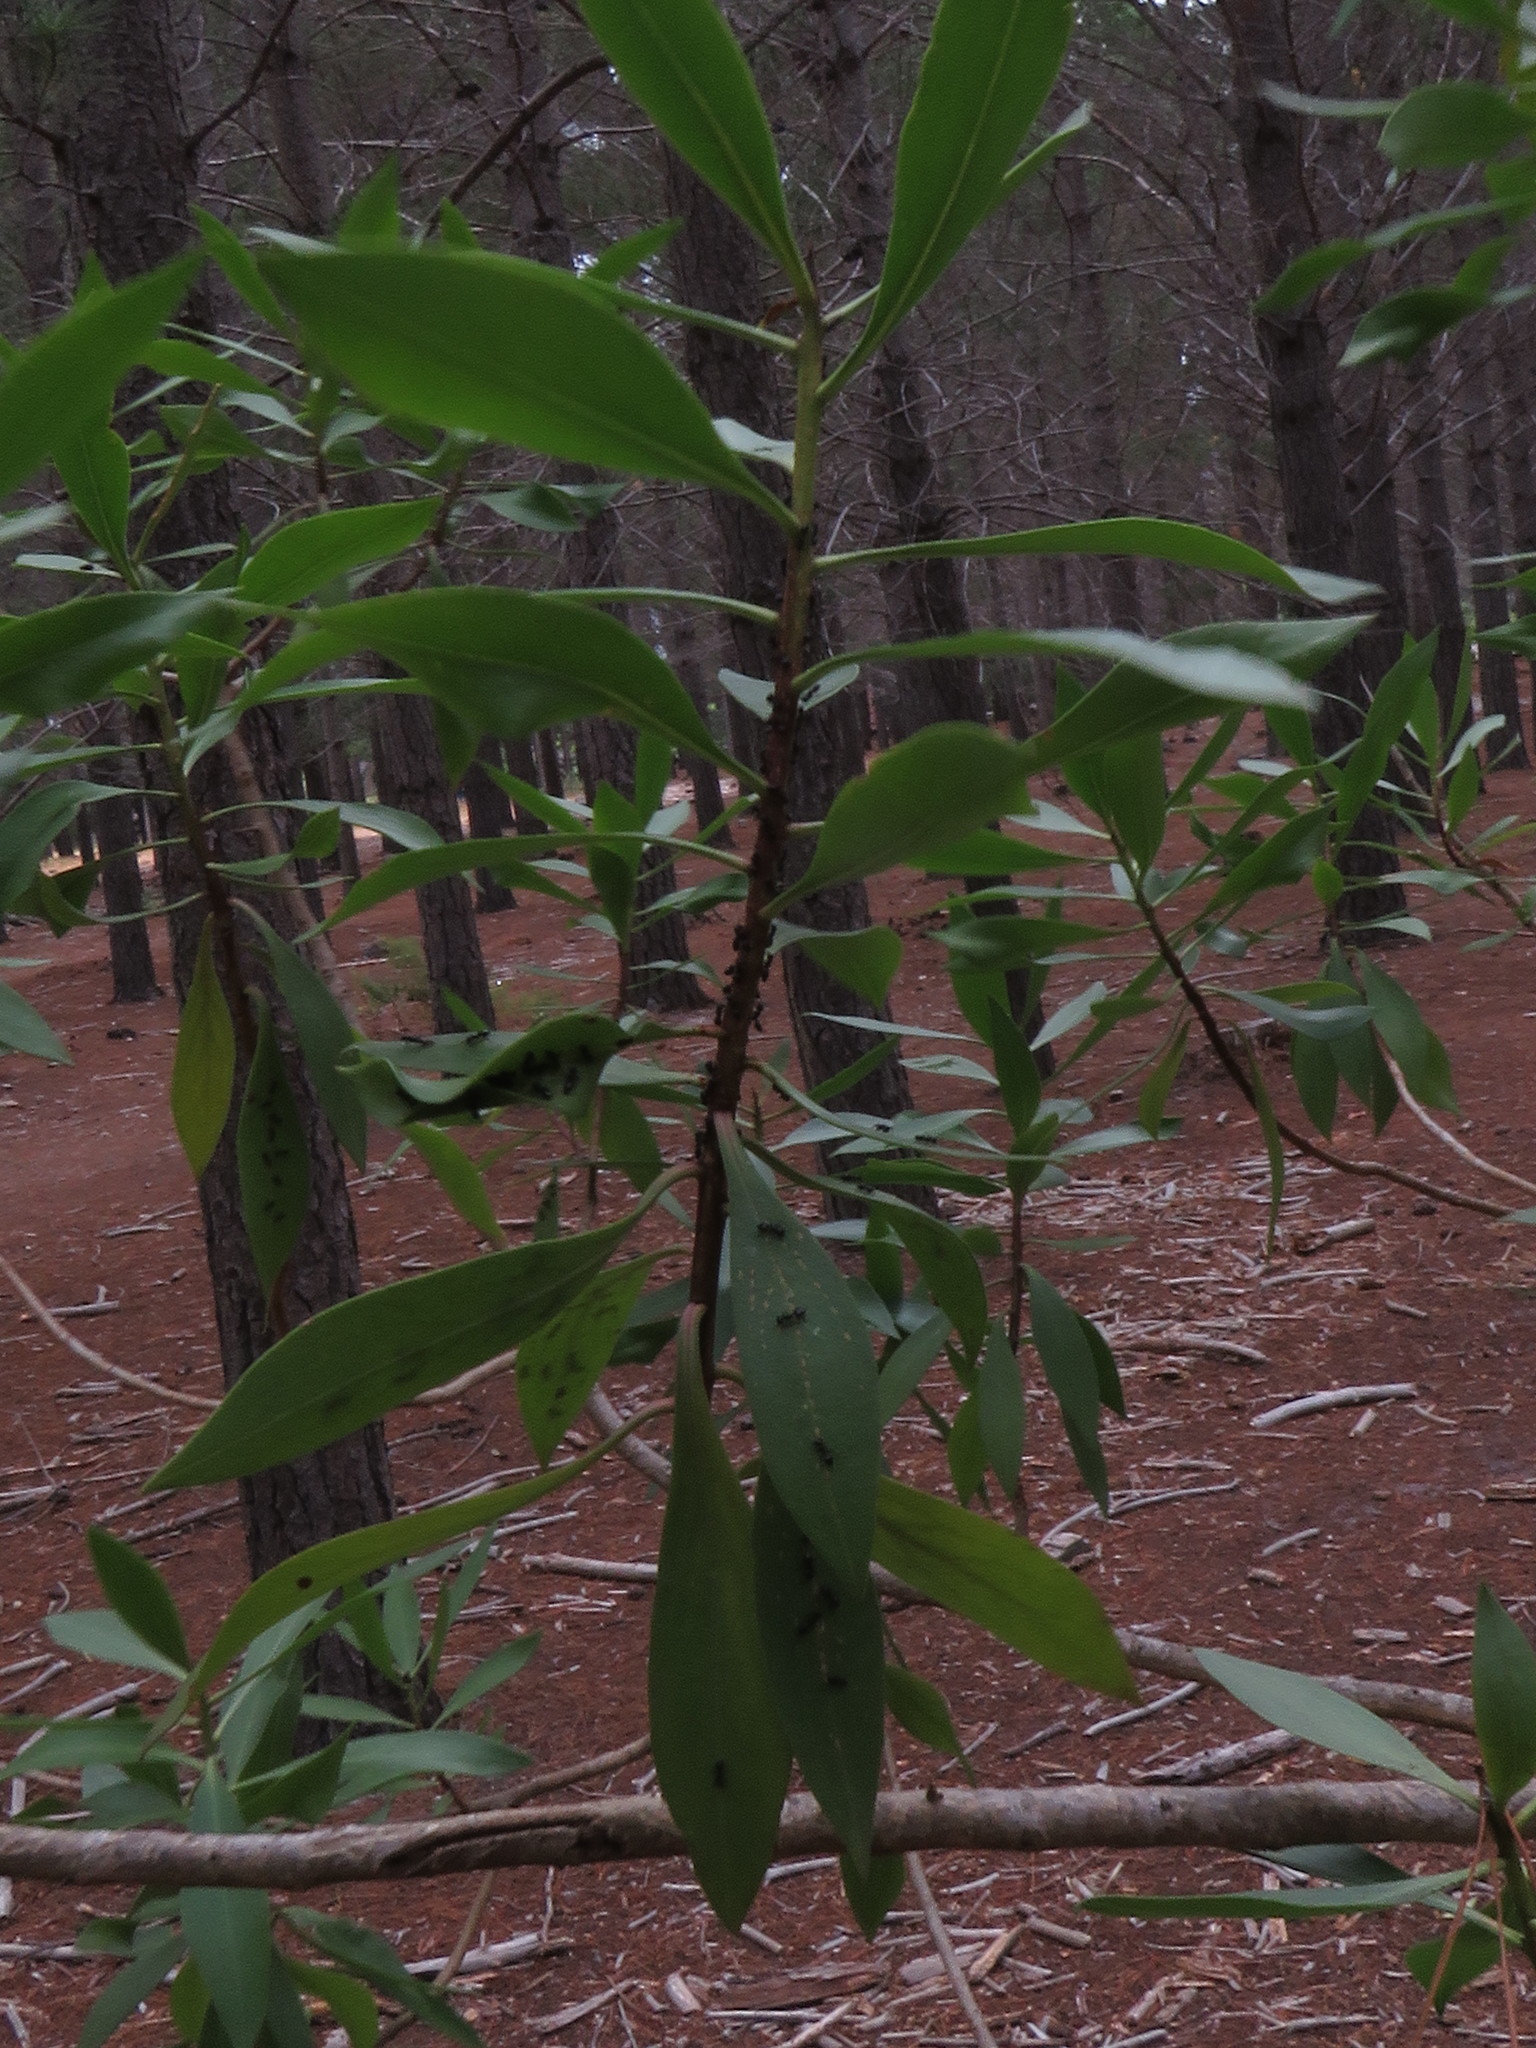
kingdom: Plantae
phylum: Tracheophyta
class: Magnoliopsida
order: Lamiales
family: Scrophulariaceae
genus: Myoporum
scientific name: Myoporum montanum
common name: Waterbush
